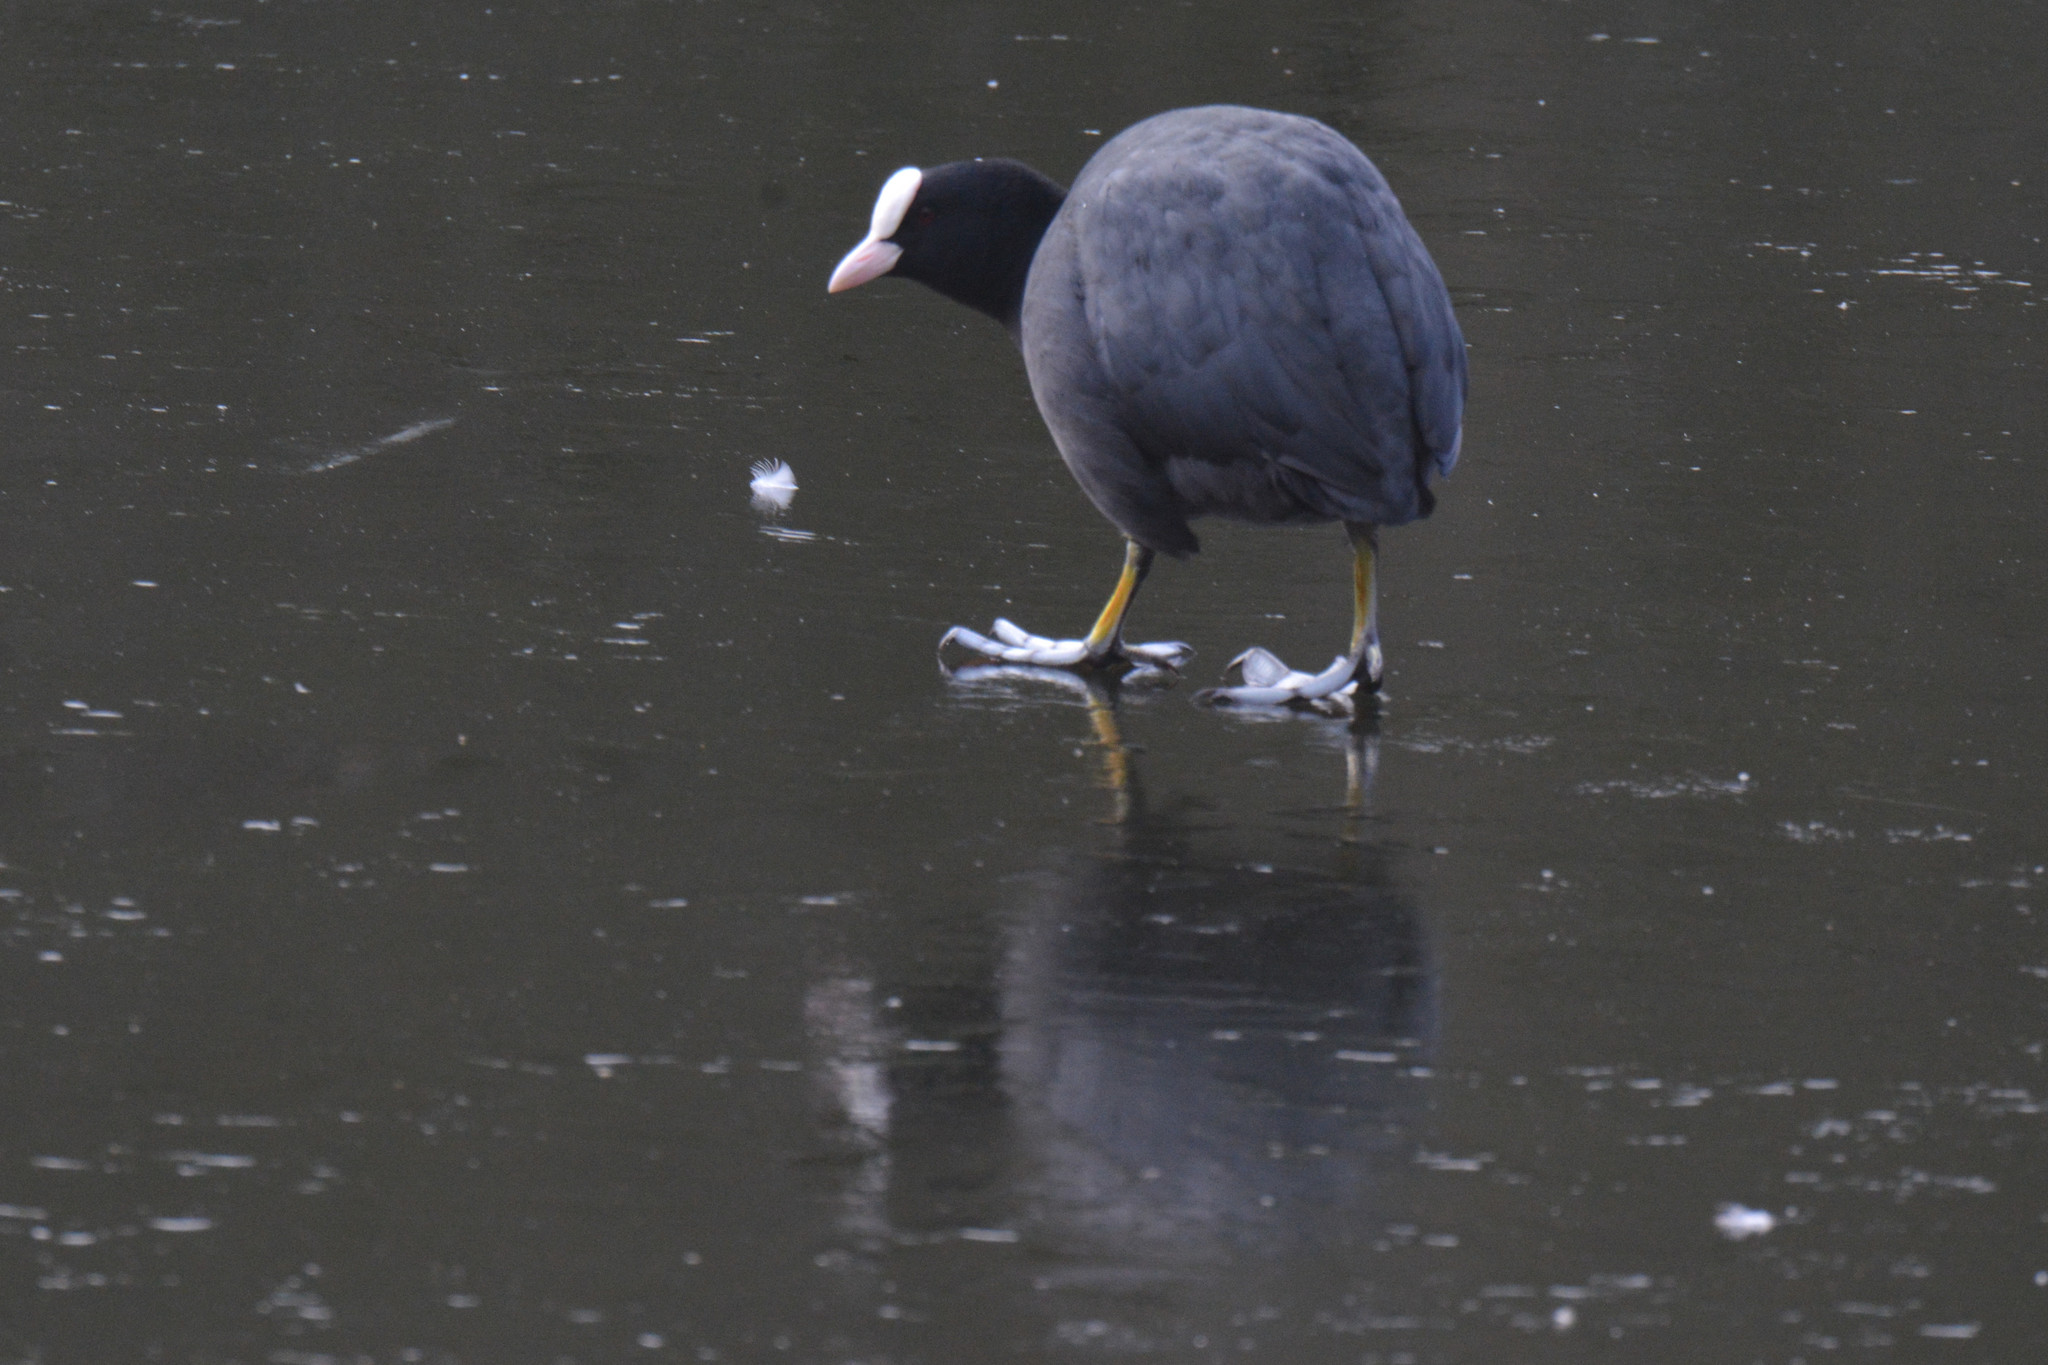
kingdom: Animalia
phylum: Chordata
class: Aves
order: Gruiformes
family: Rallidae
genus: Fulica
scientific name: Fulica atra
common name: Eurasian coot
